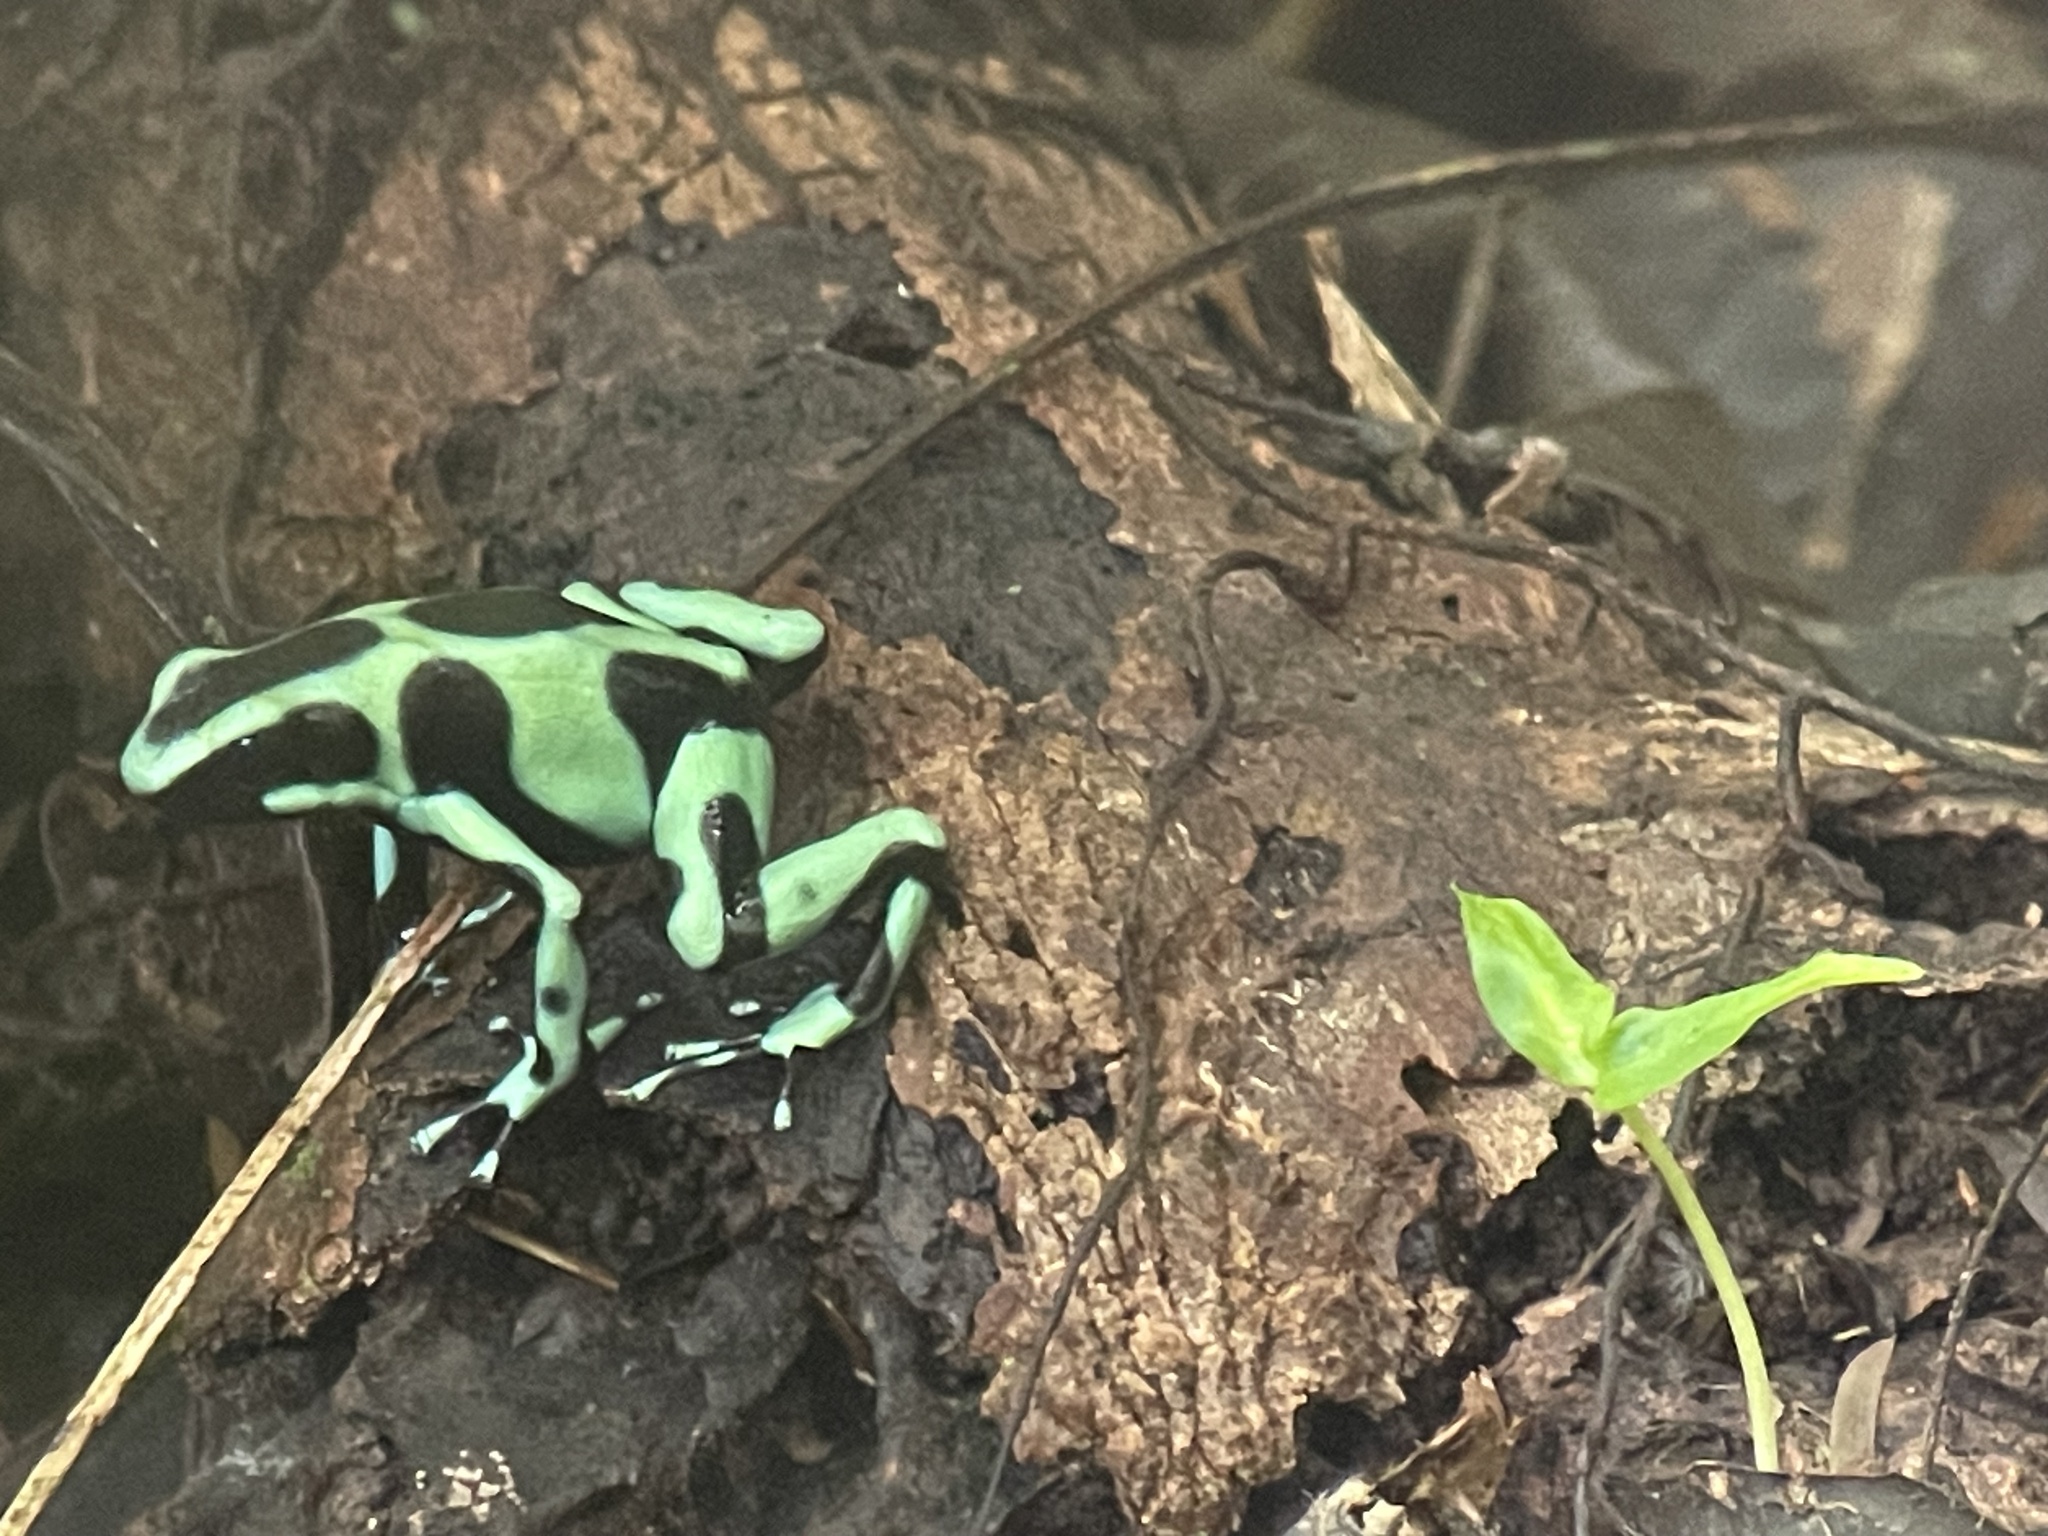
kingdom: Animalia
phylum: Chordata
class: Amphibia
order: Anura
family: Dendrobatidae
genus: Dendrobates
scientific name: Dendrobates auratus
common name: Green and black poison dart frog
